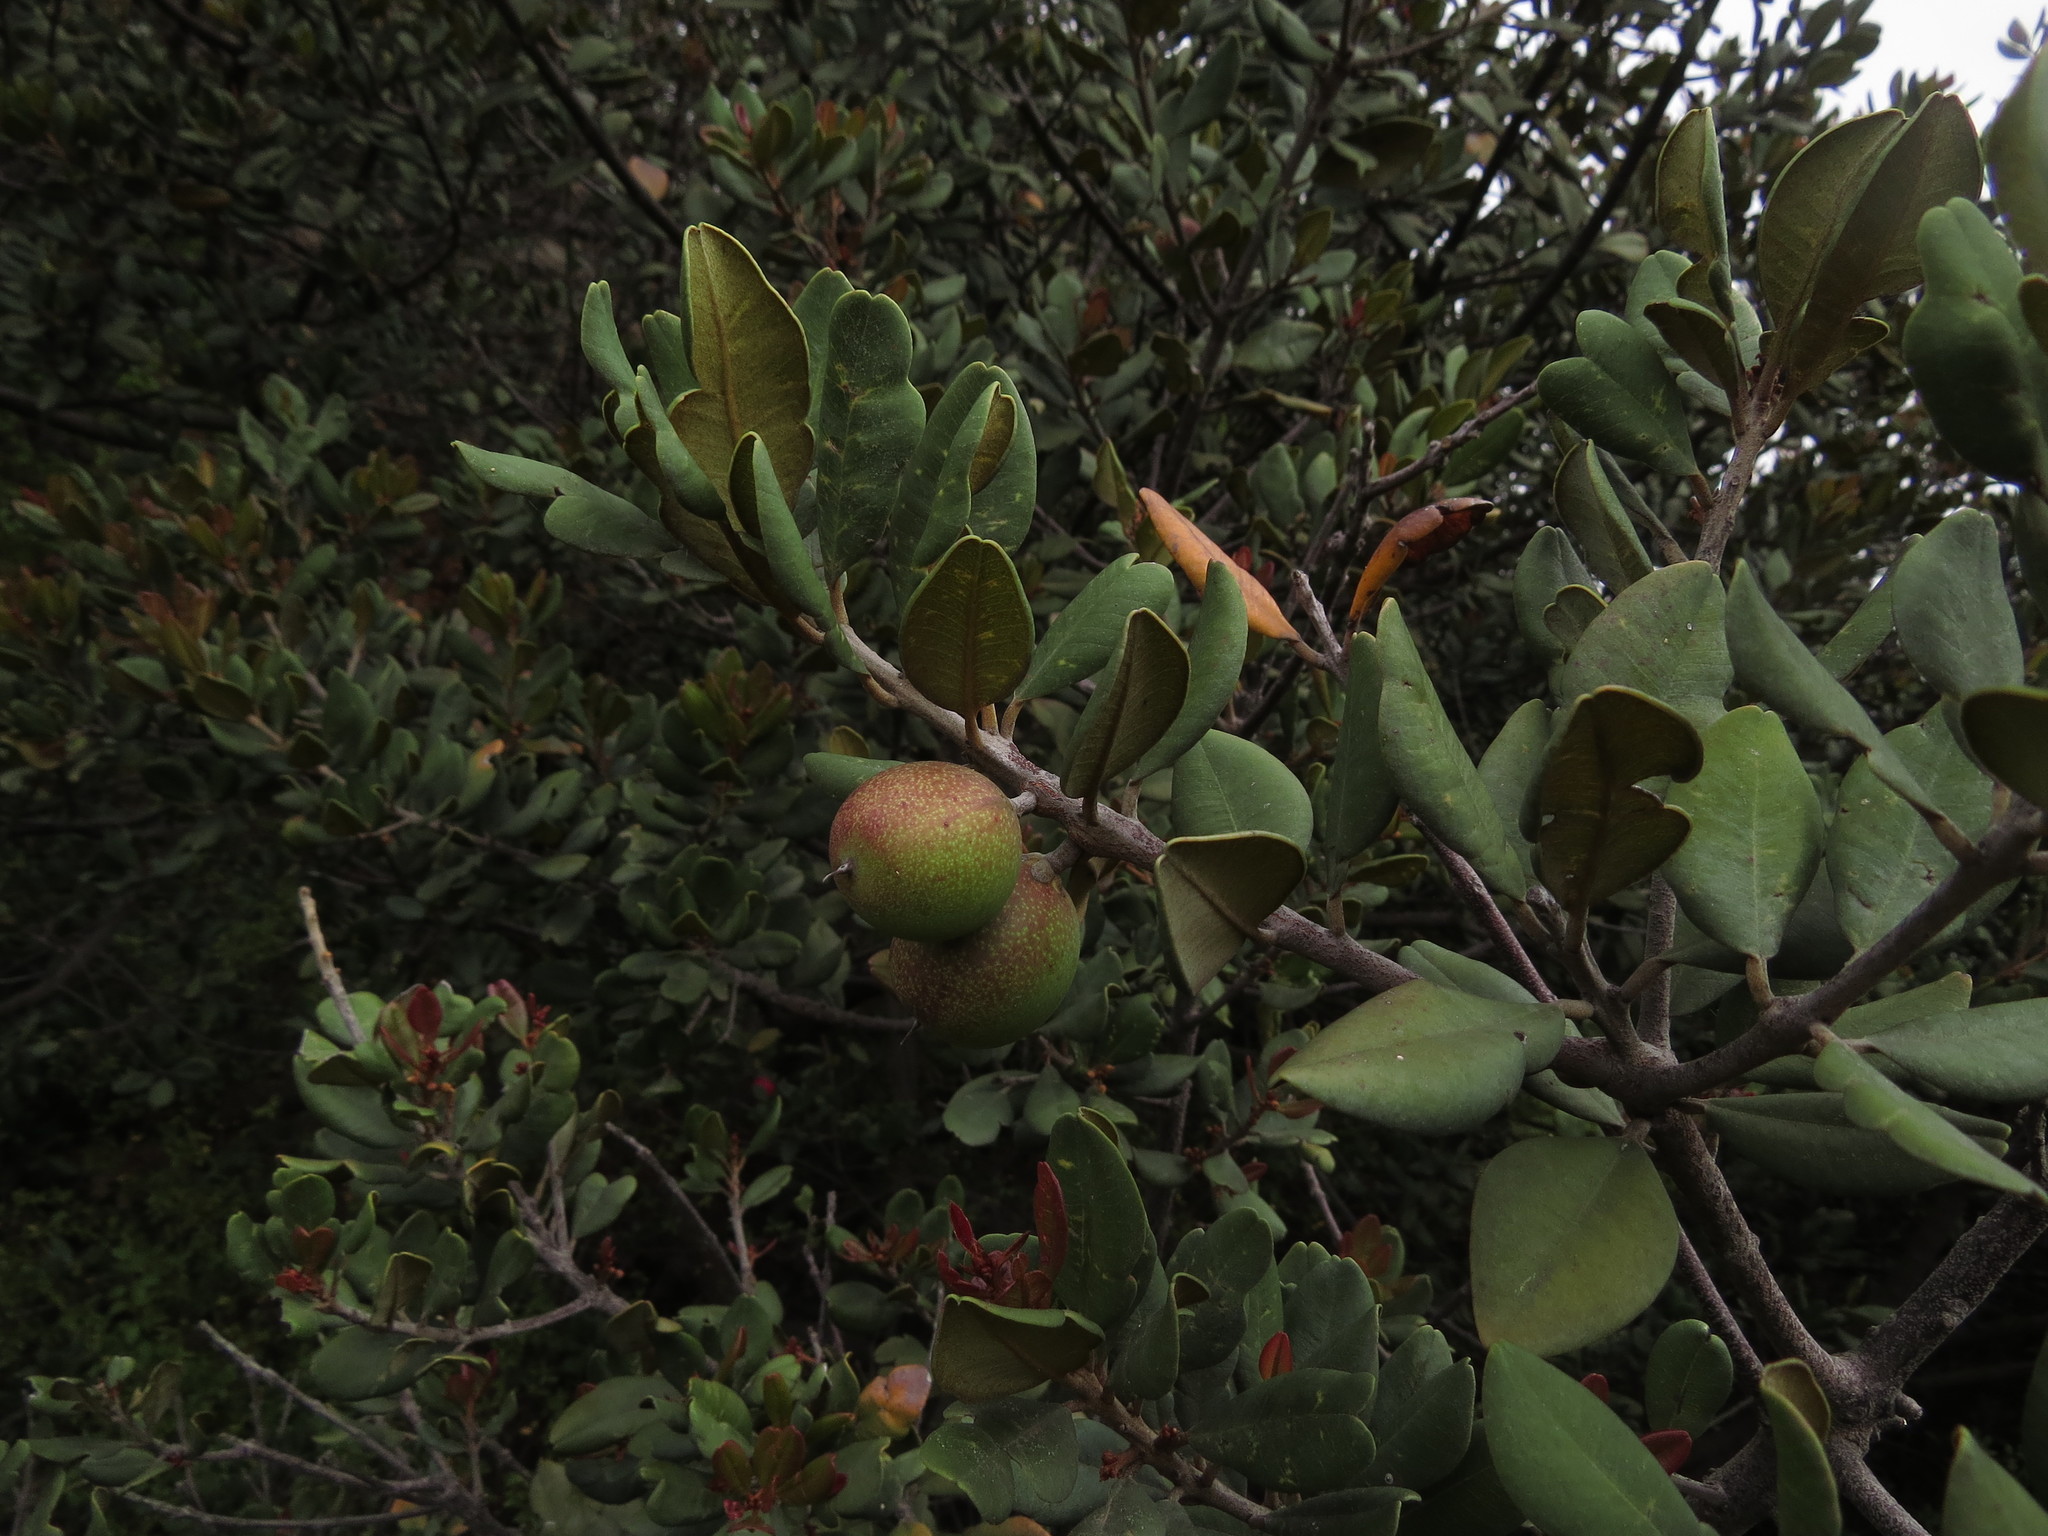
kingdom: Plantae
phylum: Tracheophyta
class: Magnoliopsida
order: Ericales
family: Sapotaceae
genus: Pouteria
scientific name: Pouteria valparadisaea
